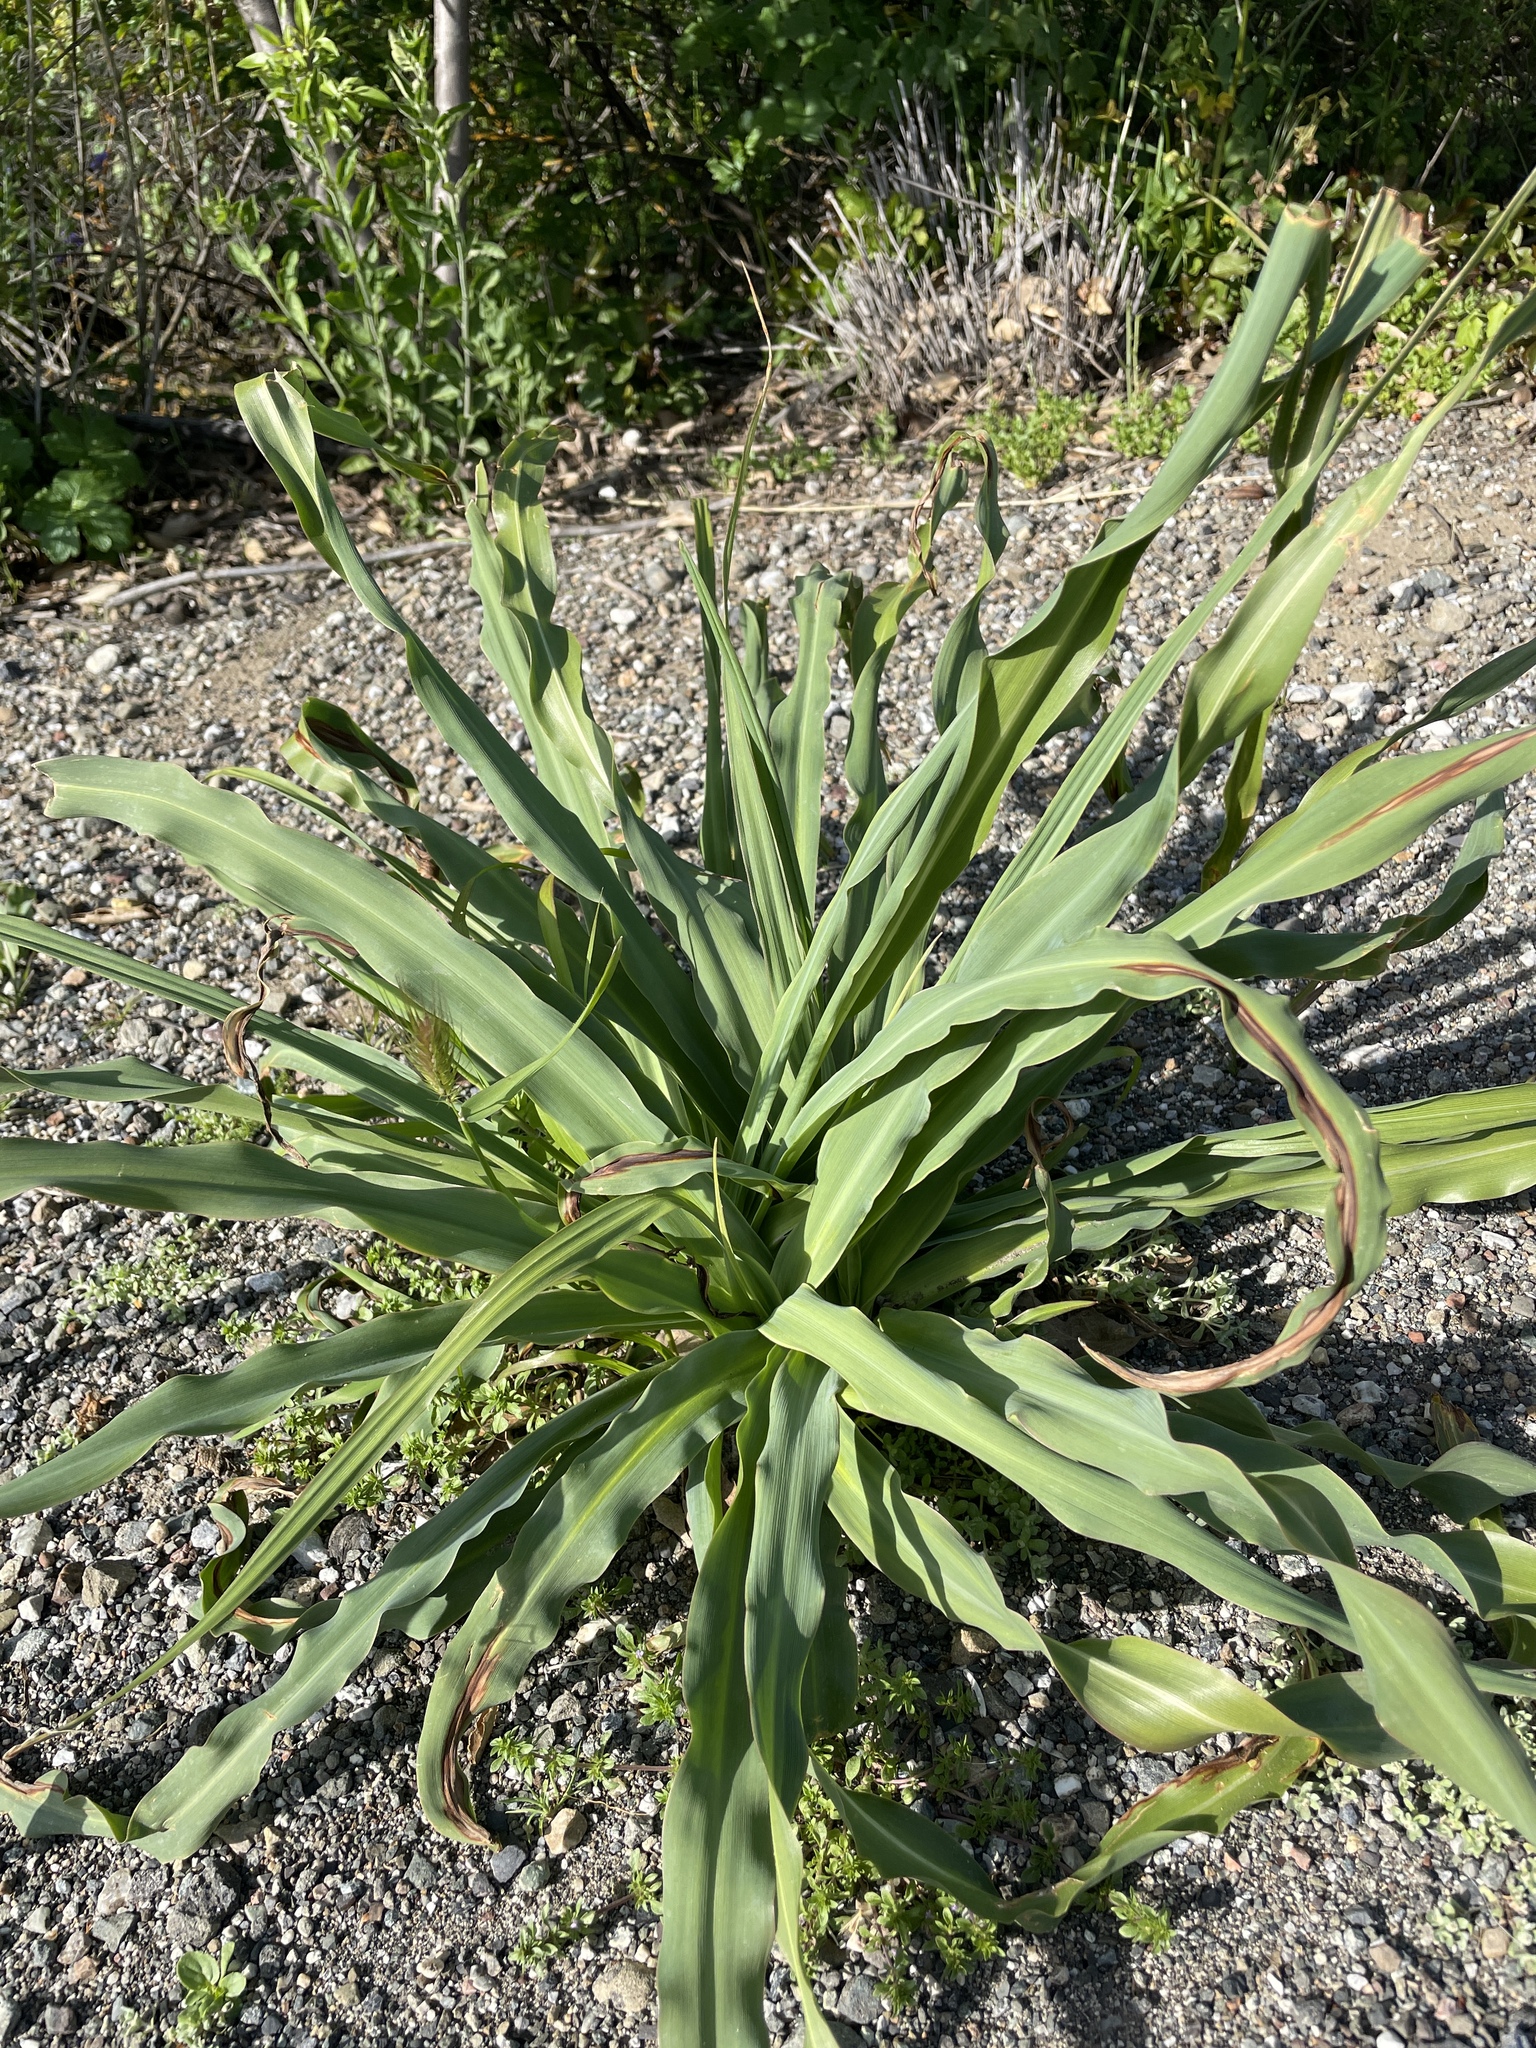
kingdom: Plantae
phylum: Tracheophyta
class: Liliopsida
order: Asparagales
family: Asparagaceae
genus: Chlorogalum
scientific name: Chlorogalum pomeridianum
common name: Amole
